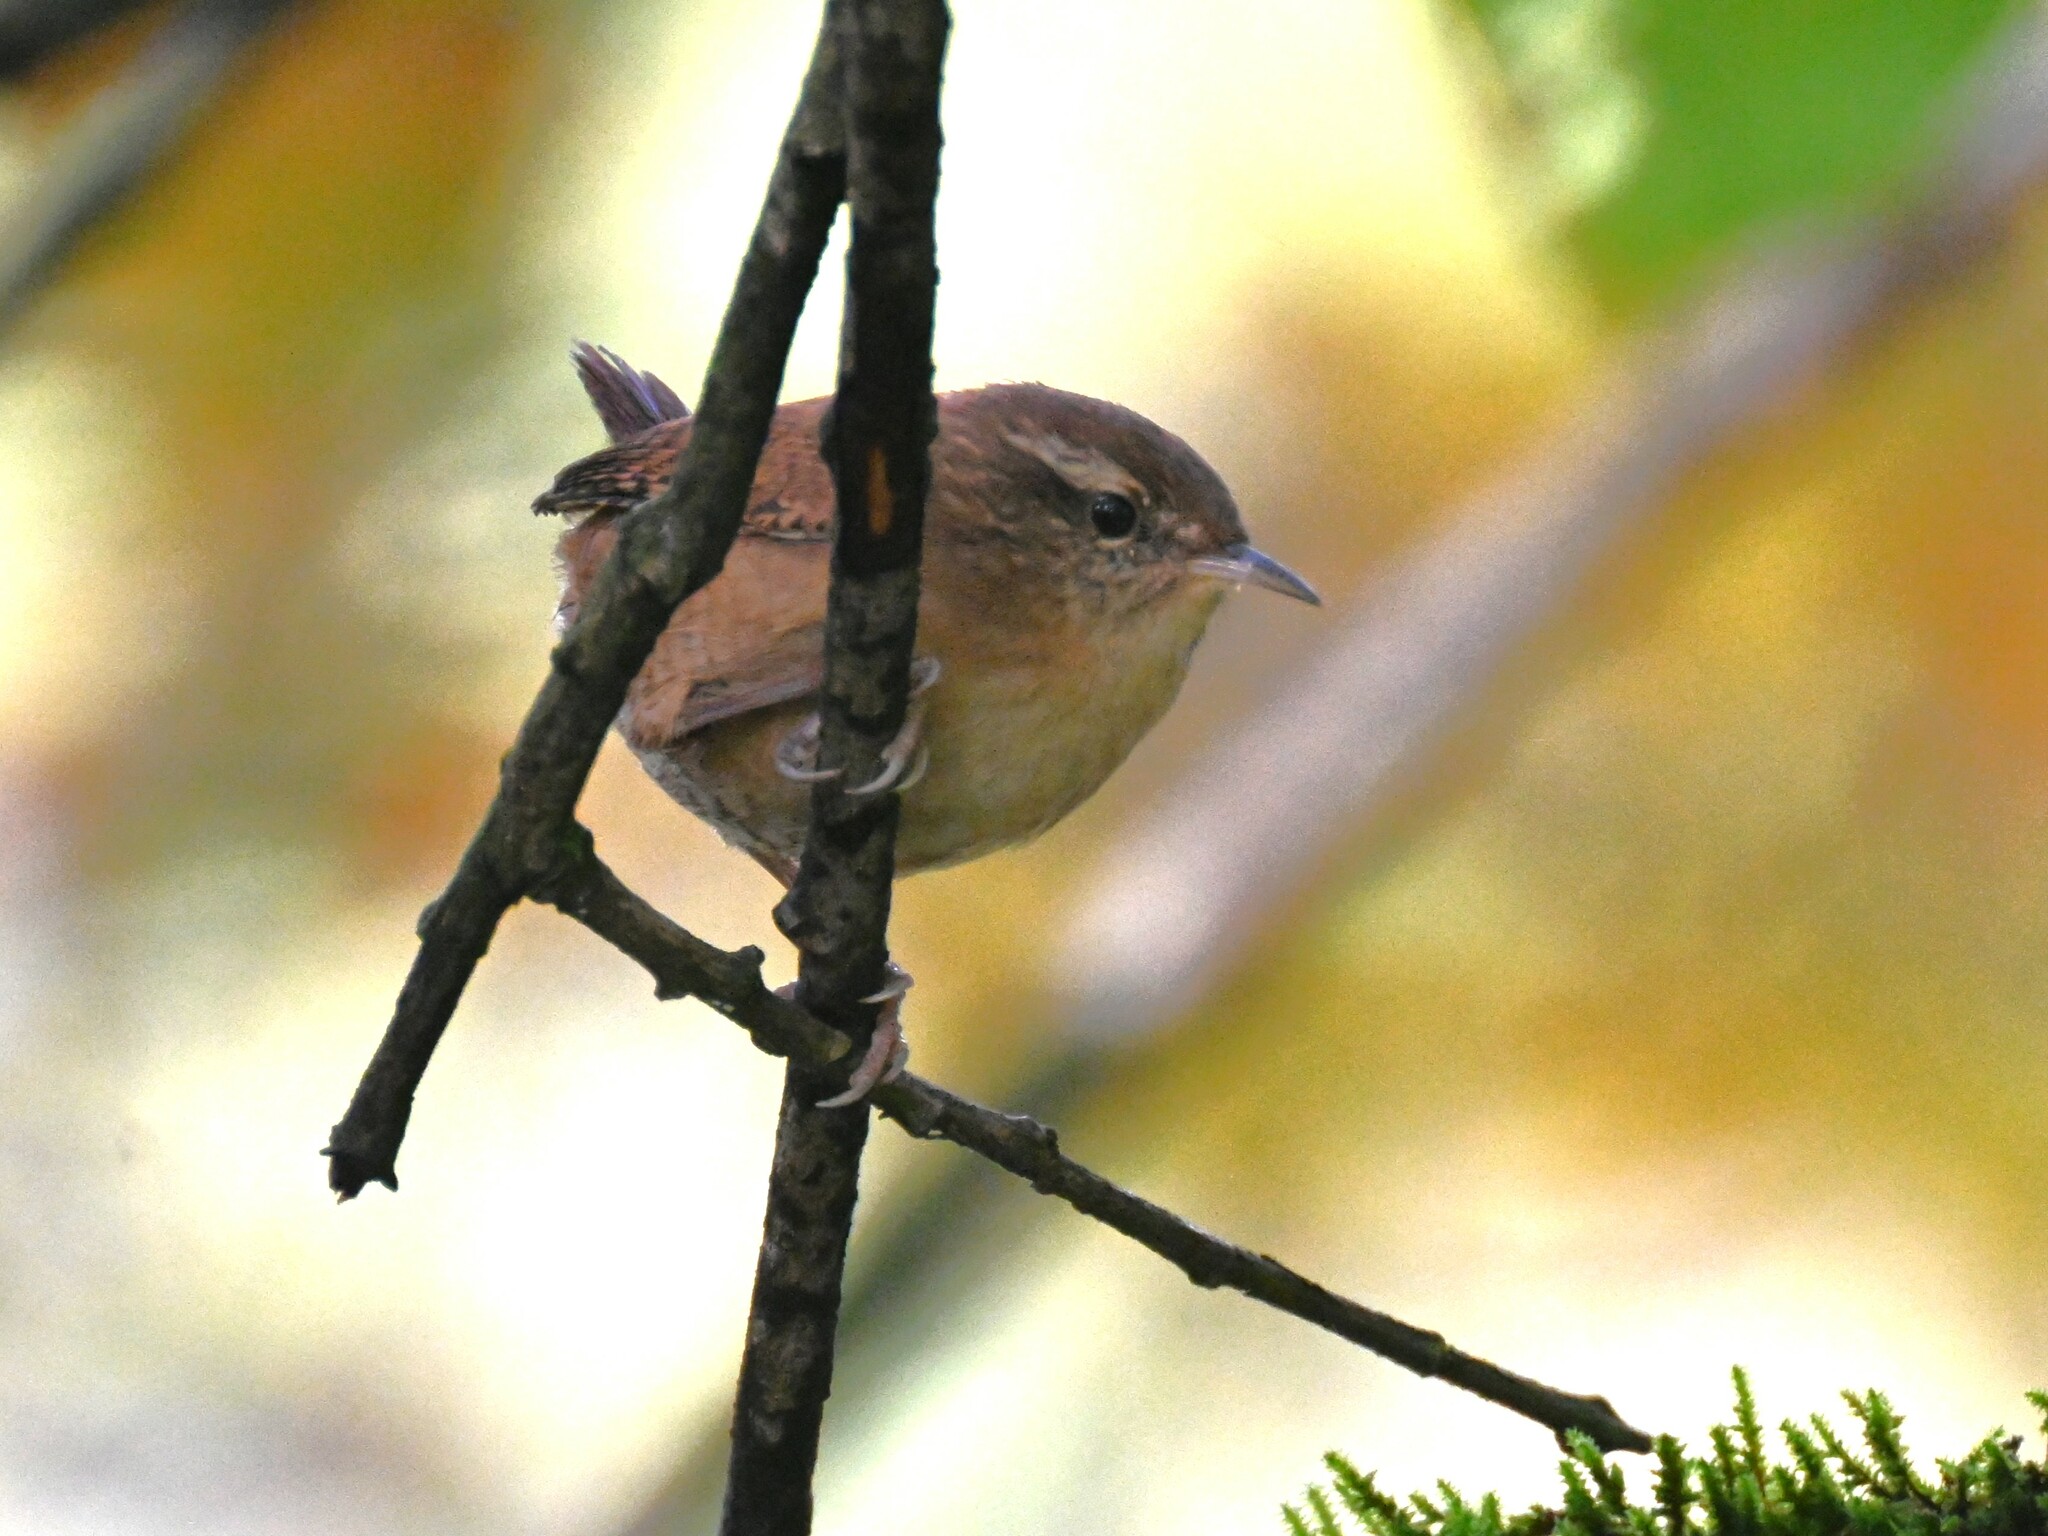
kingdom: Animalia
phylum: Chordata
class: Aves
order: Passeriformes
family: Troglodytidae
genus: Troglodytes
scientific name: Troglodytes troglodytes
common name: Eurasian wren
